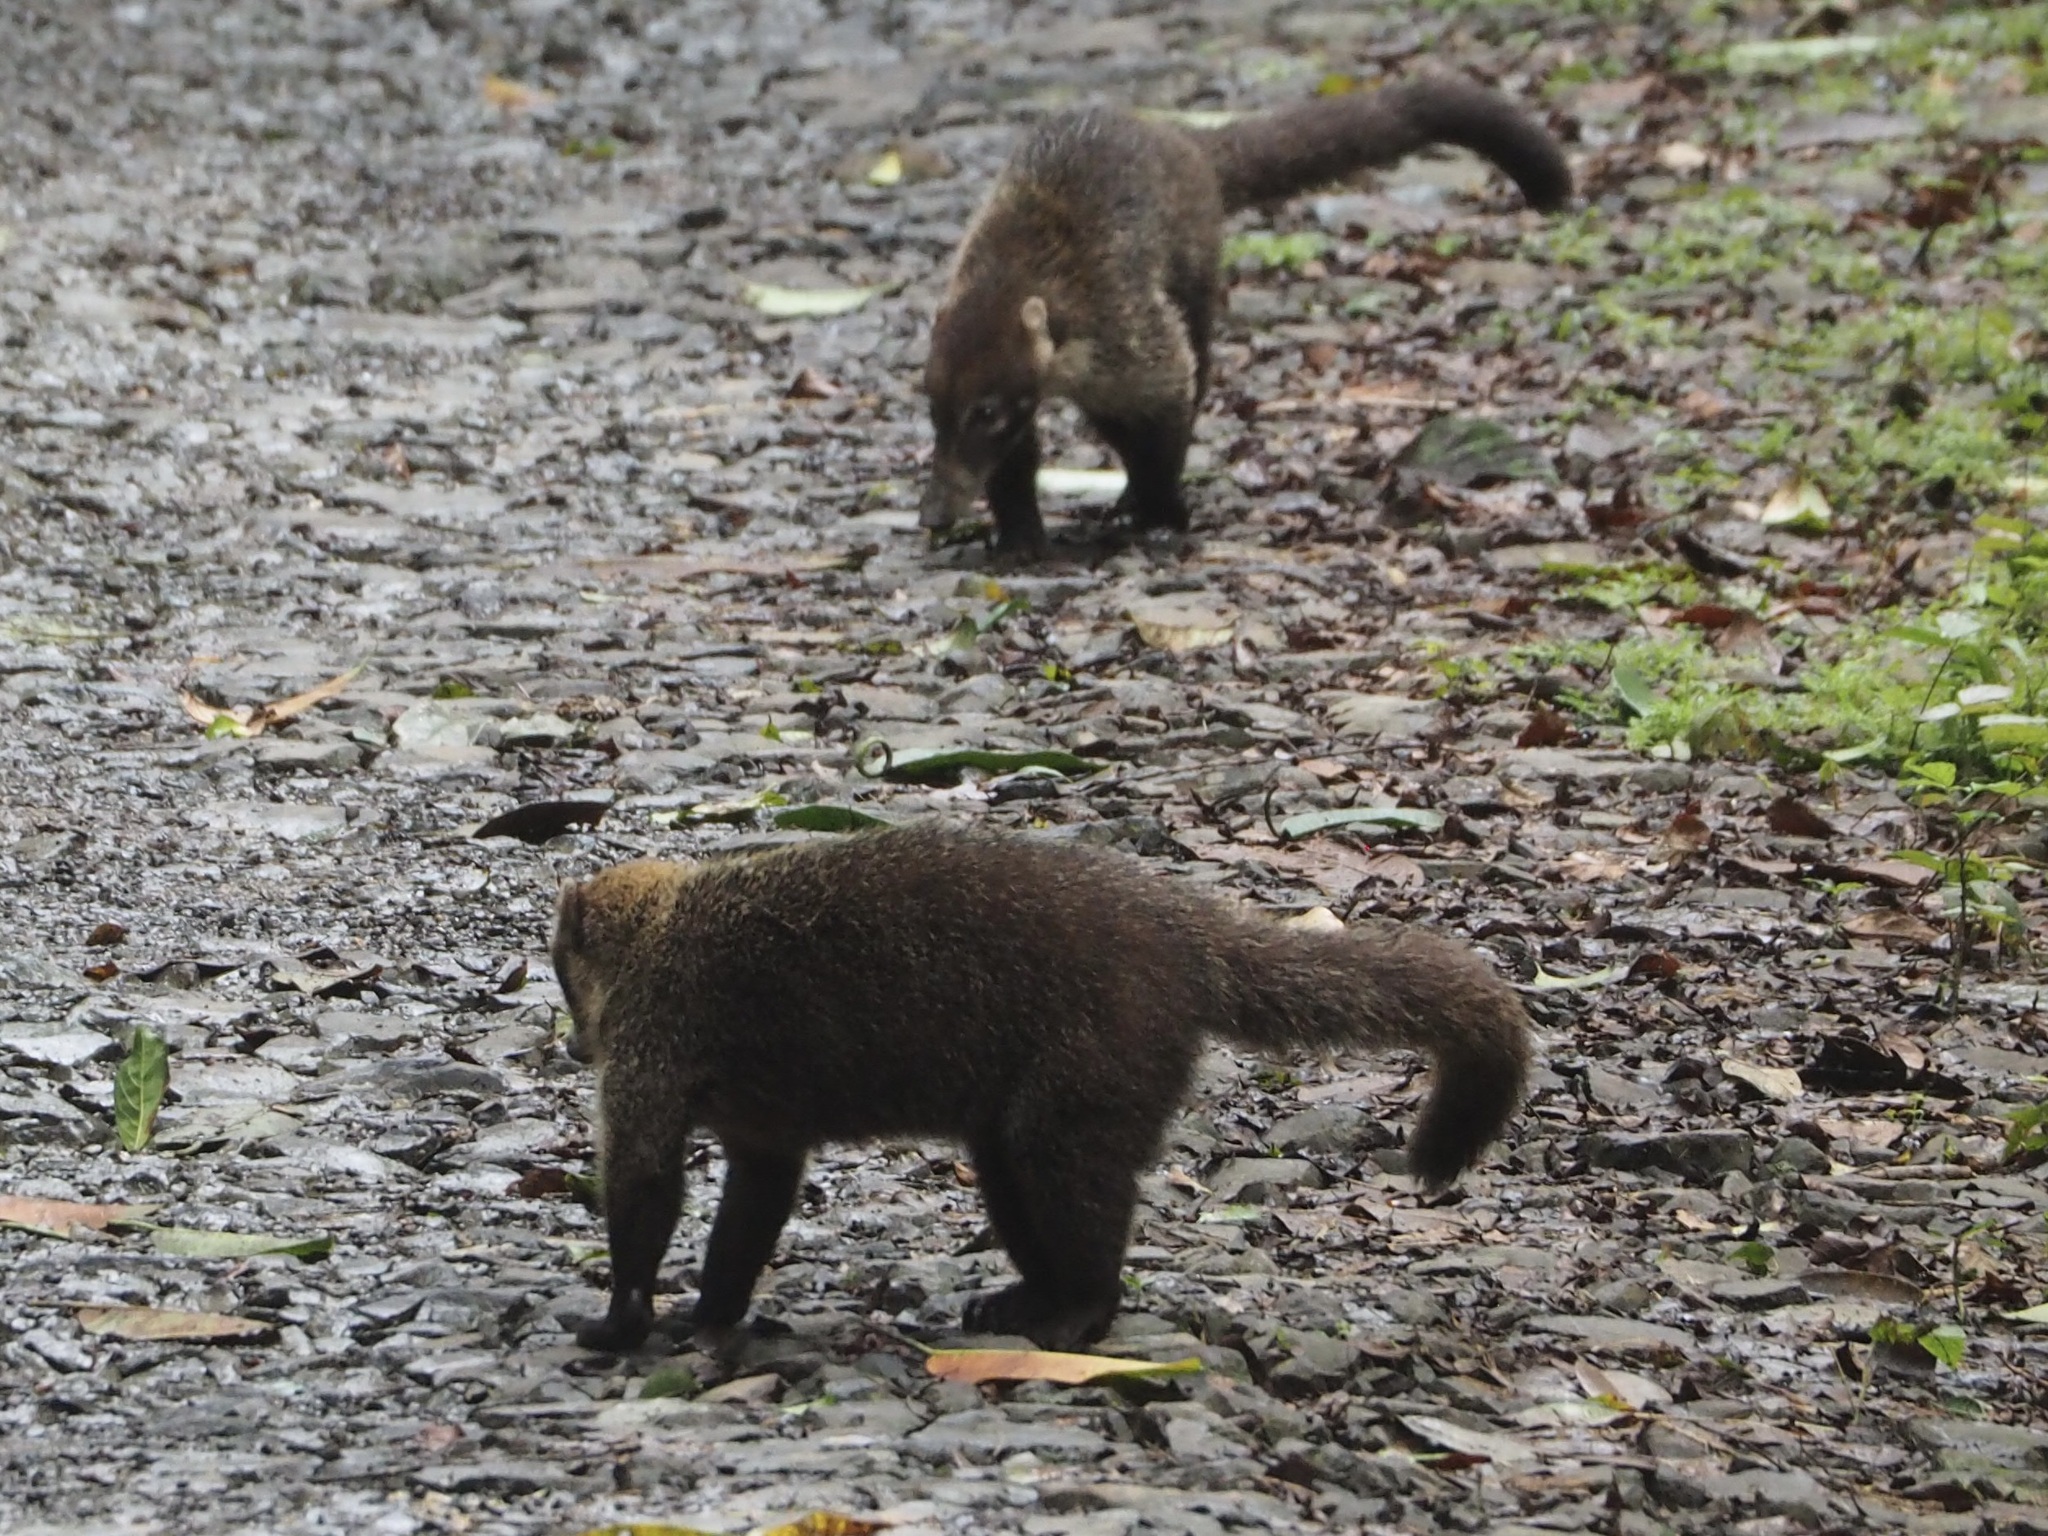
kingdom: Animalia
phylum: Chordata
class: Mammalia
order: Carnivora
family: Procyonidae
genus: Nasua
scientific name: Nasua narica
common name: White-nosed coati
